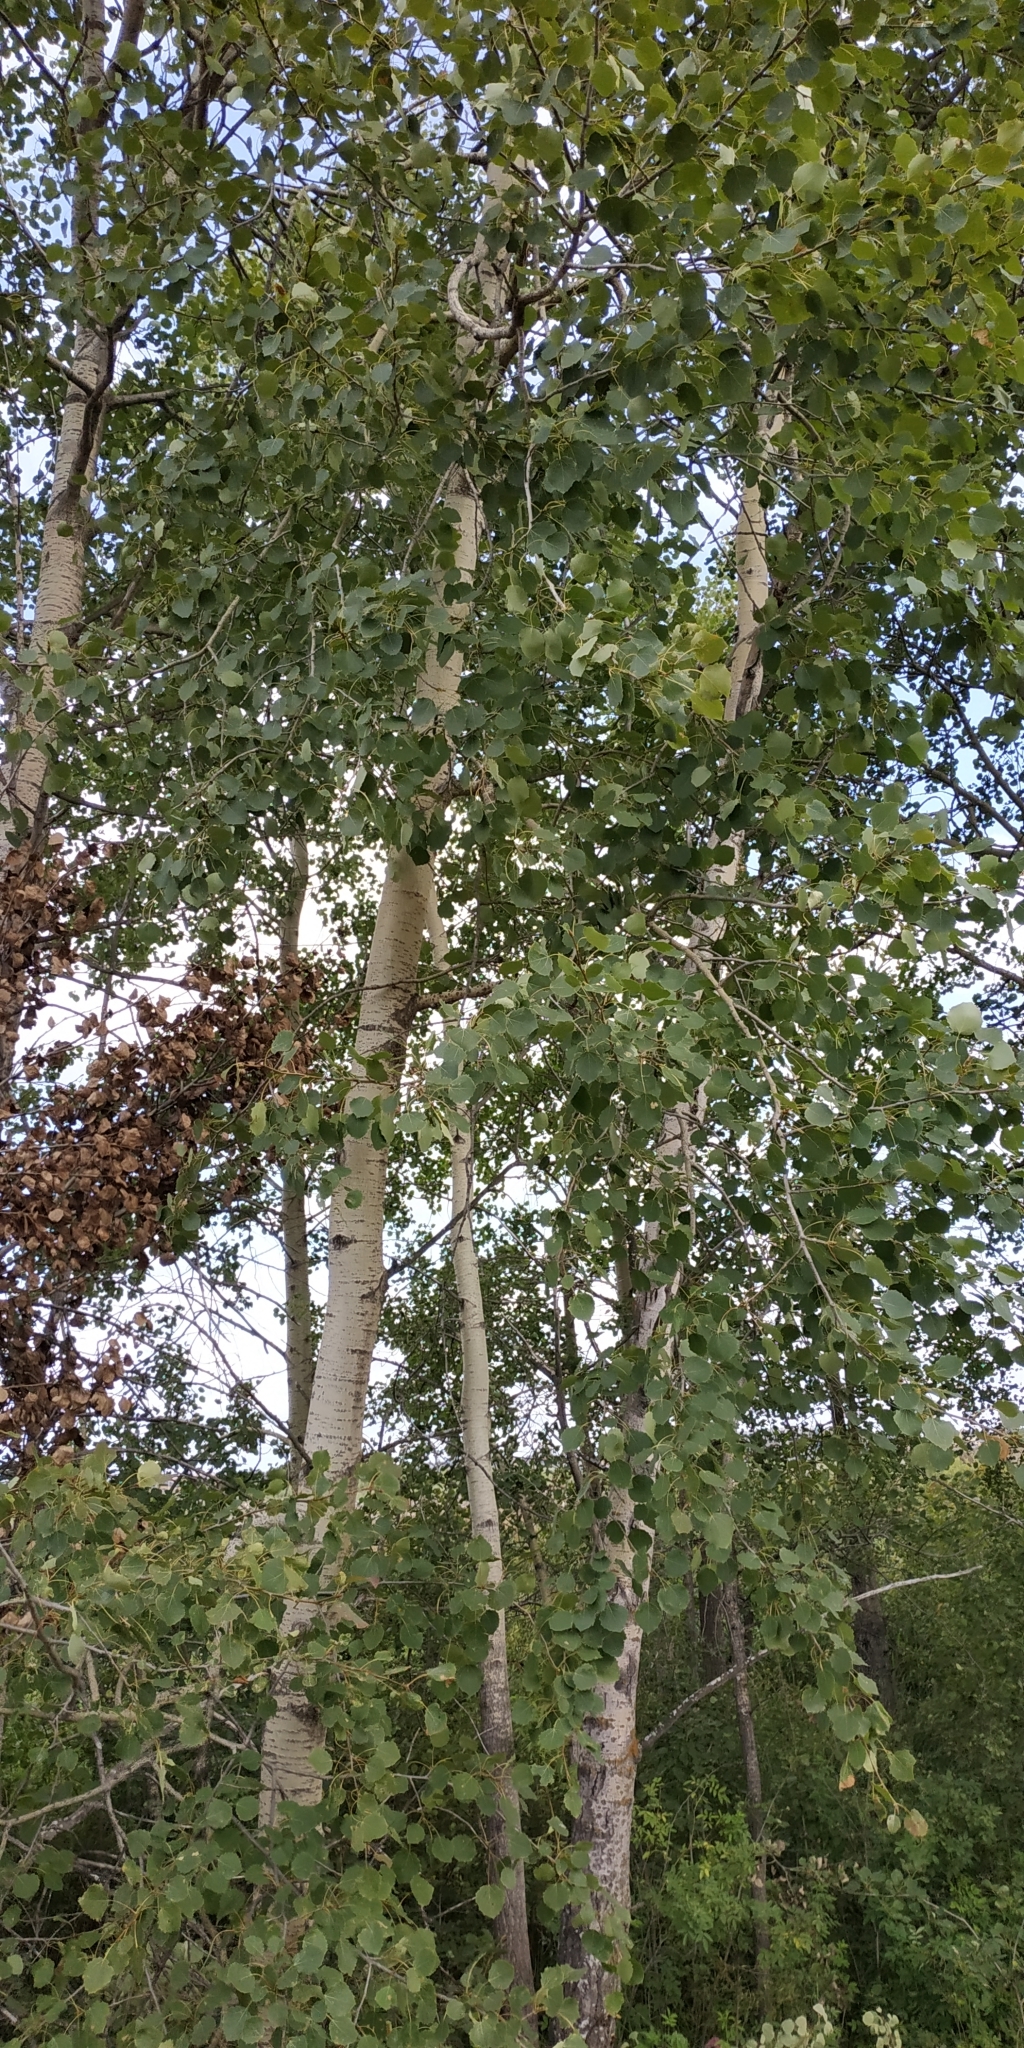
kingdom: Plantae
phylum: Tracheophyta
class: Magnoliopsida
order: Malpighiales
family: Salicaceae
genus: Populus
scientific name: Populus tremula
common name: European aspen
